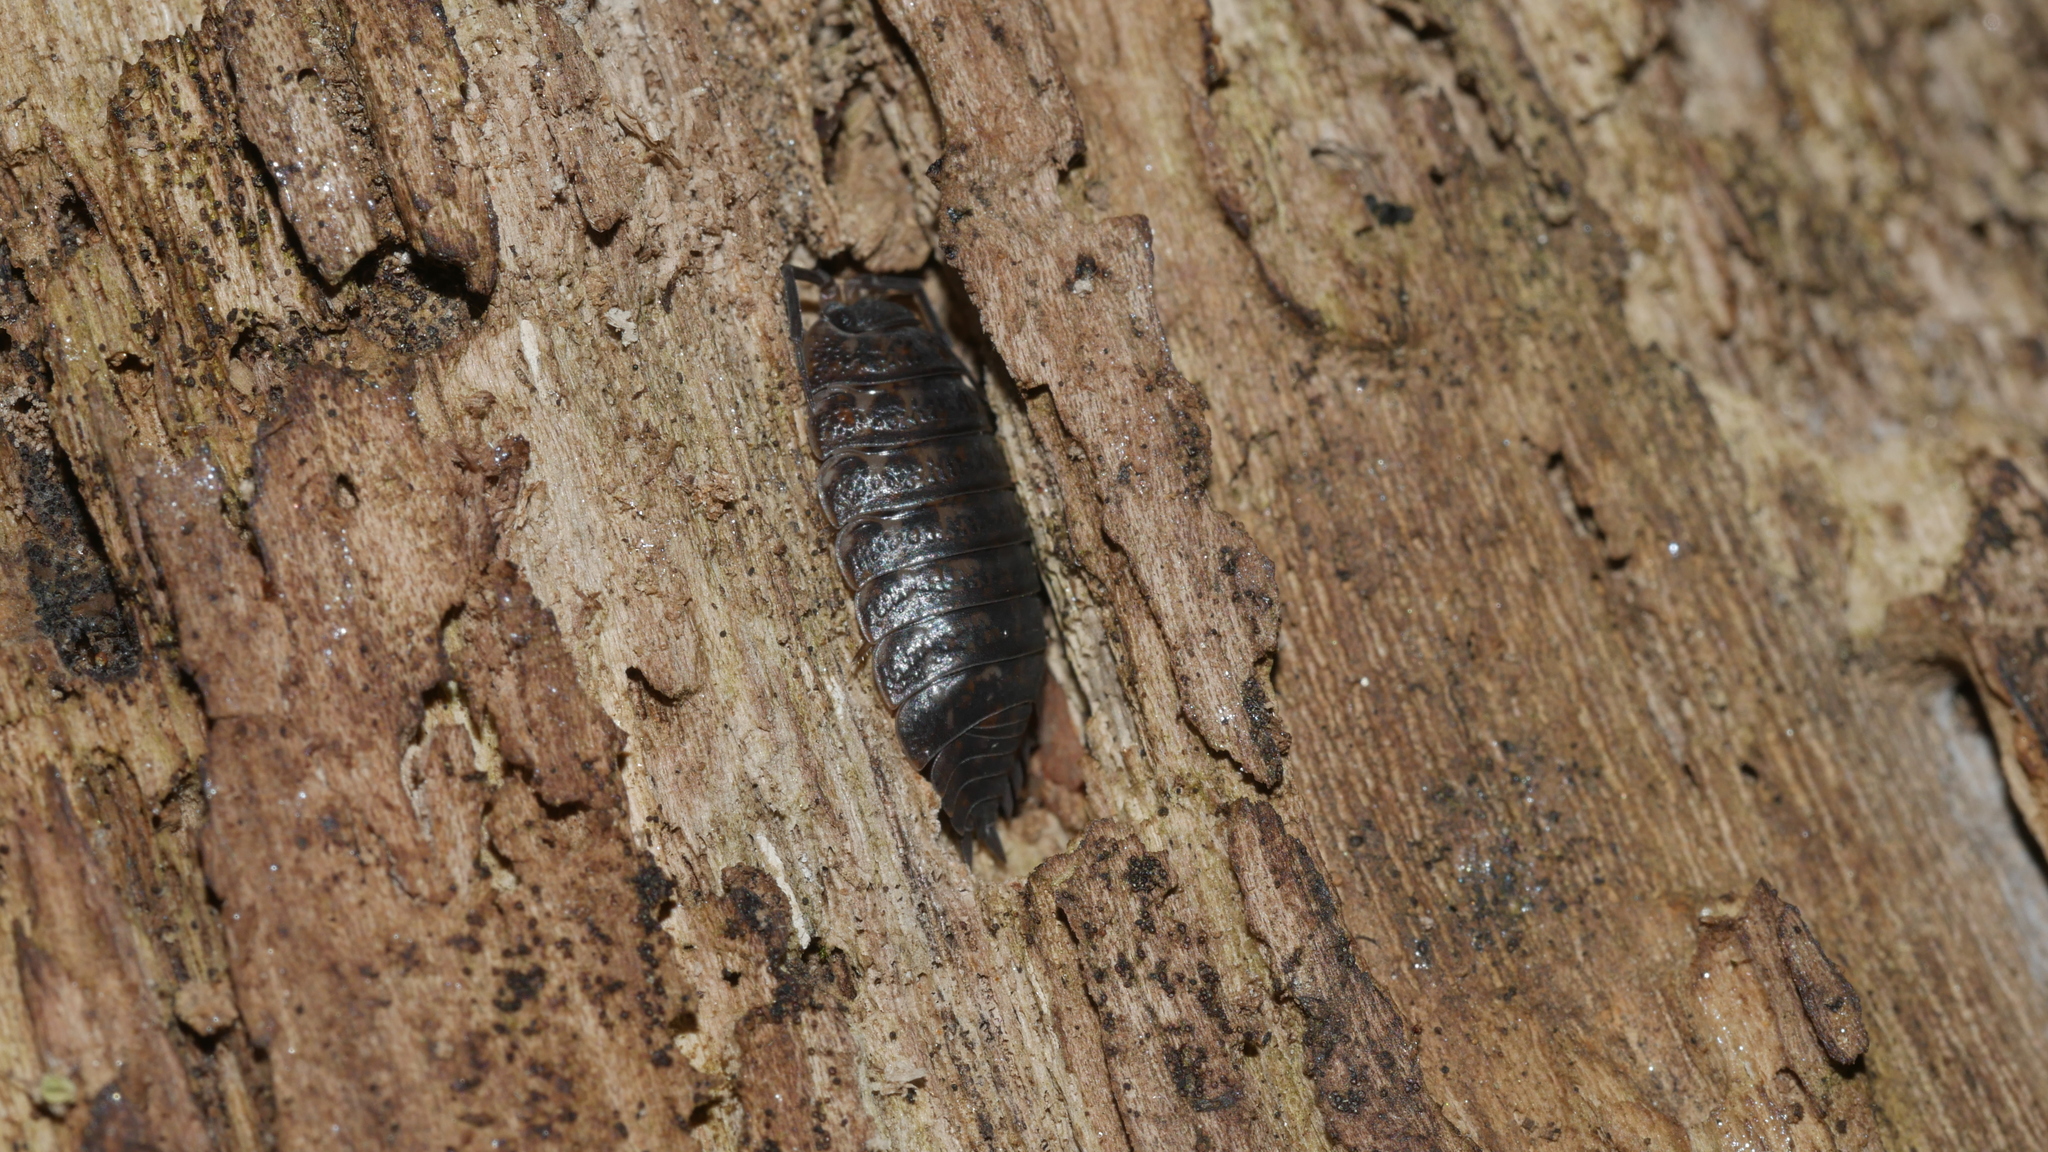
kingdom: Animalia
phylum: Arthropoda
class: Malacostraca
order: Isopoda
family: Trachelipodidae
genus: Trachelipus
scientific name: Trachelipus rathkii
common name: Isopod
